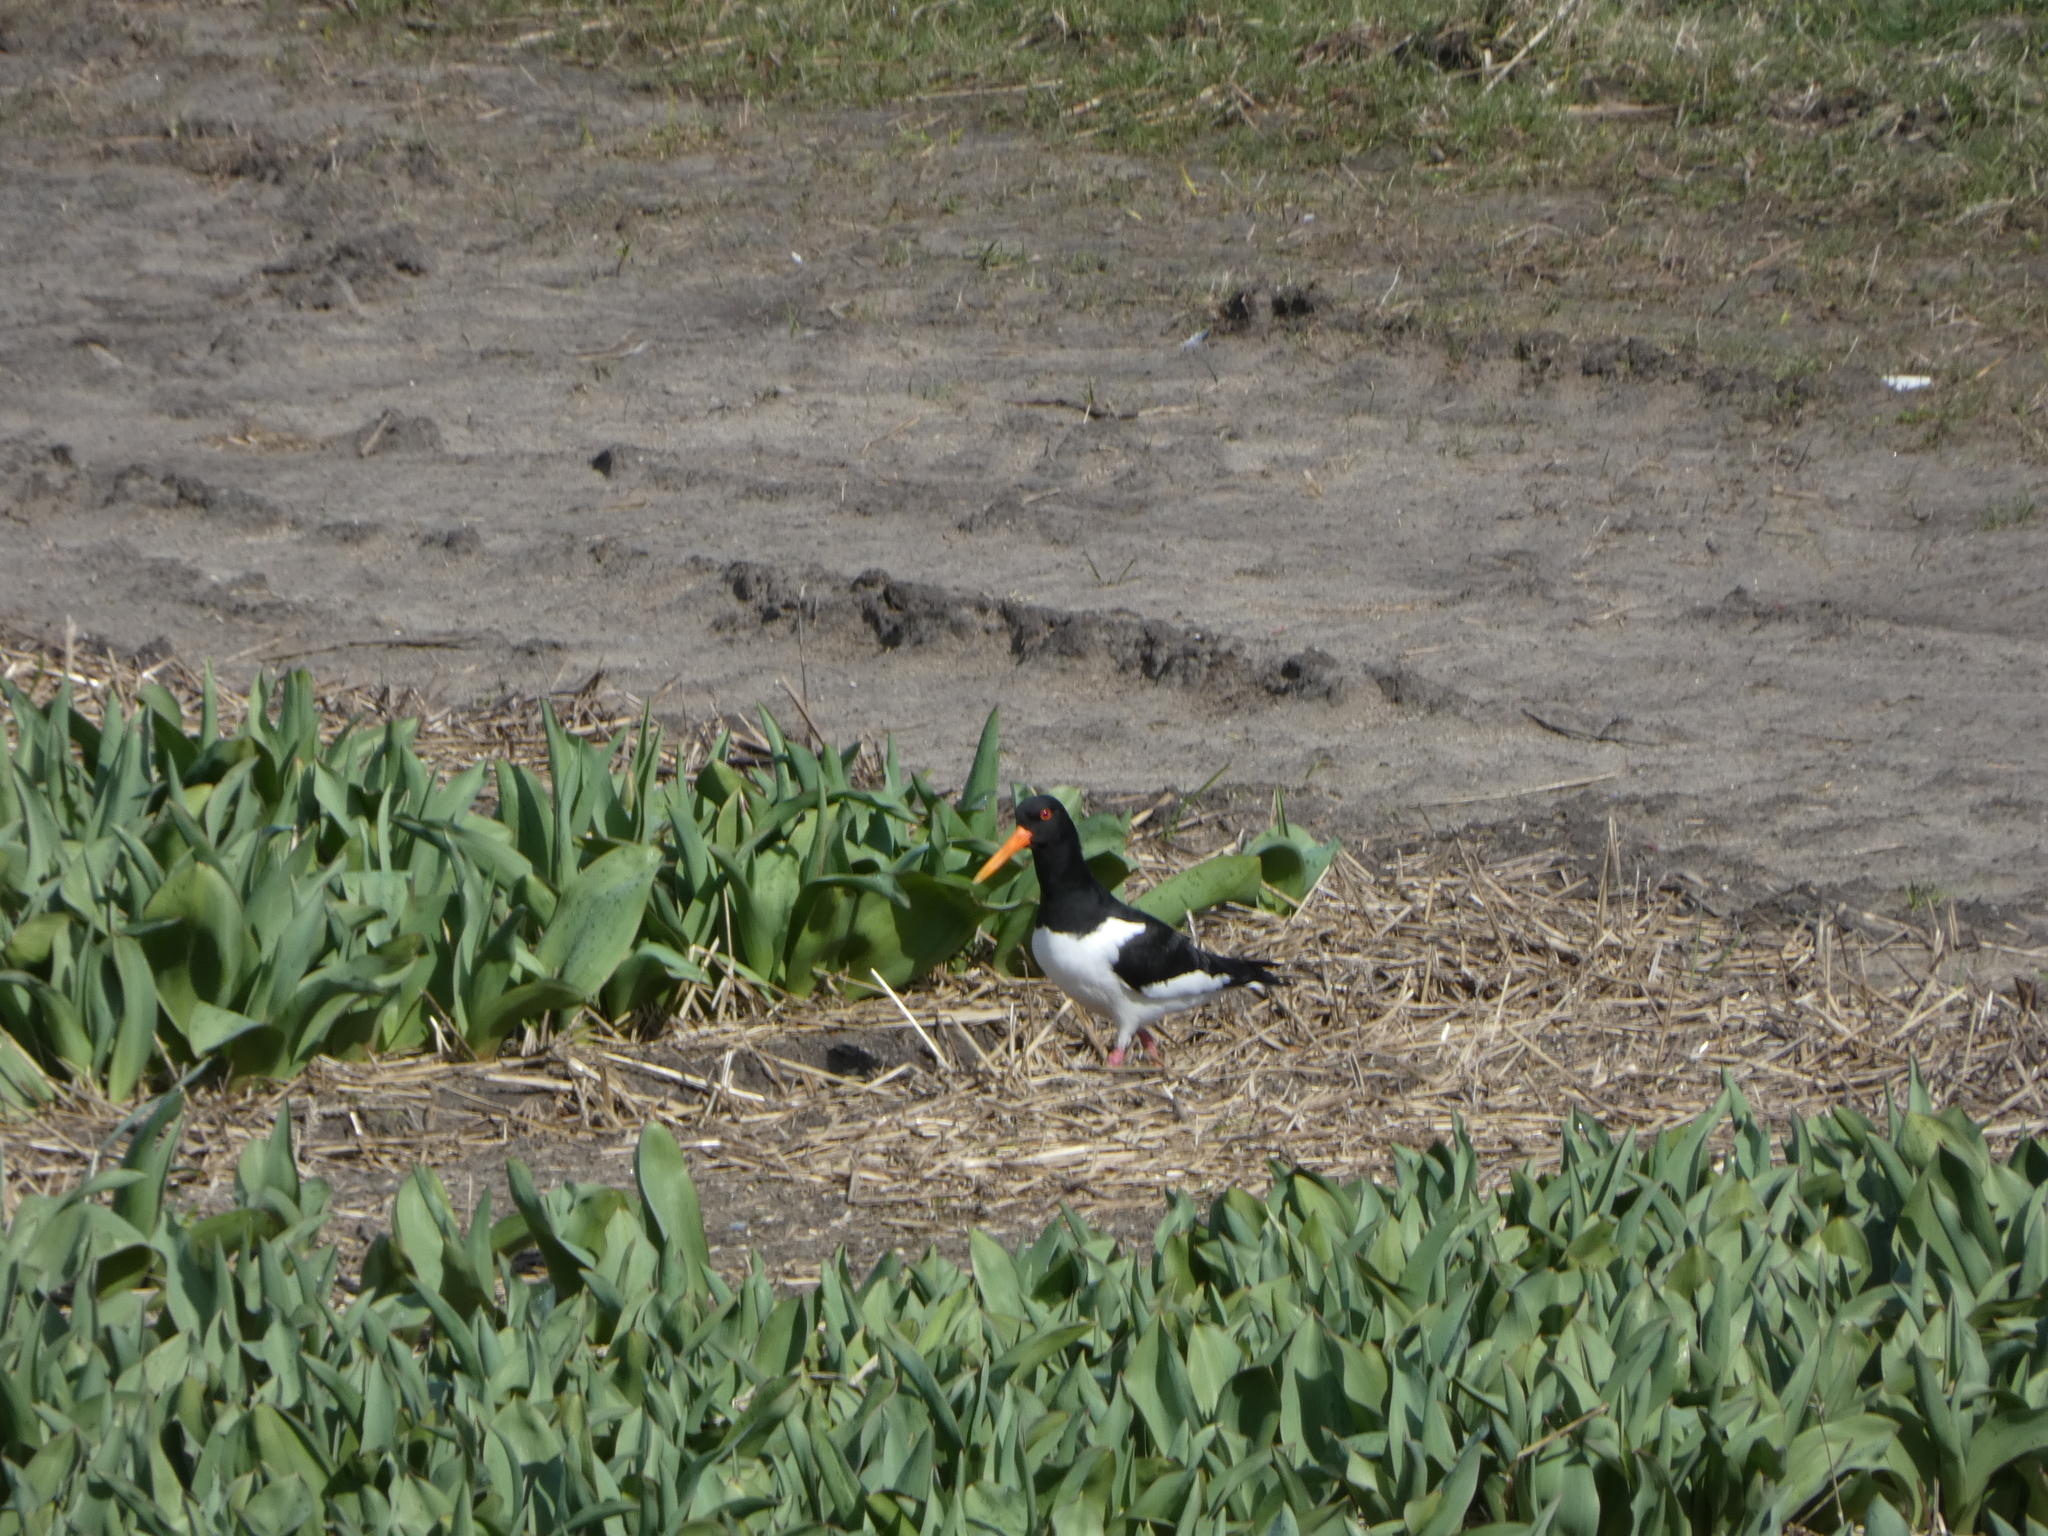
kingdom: Animalia
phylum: Chordata
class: Aves
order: Charadriiformes
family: Haematopodidae
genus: Haematopus
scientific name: Haematopus ostralegus
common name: Eurasian oystercatcher
